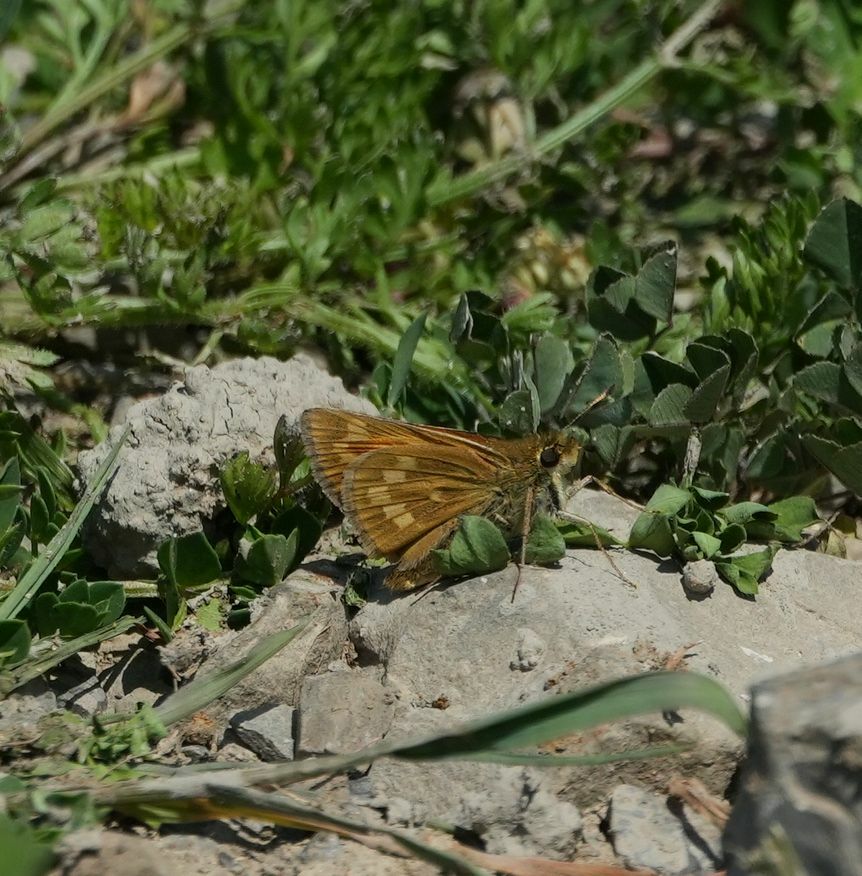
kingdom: Animalia
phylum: Arthropoda
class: Insecta
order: Lepidoptera
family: Hesperiidae
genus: Hesperia
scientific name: Hesperia sassacus
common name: Indian skipper
